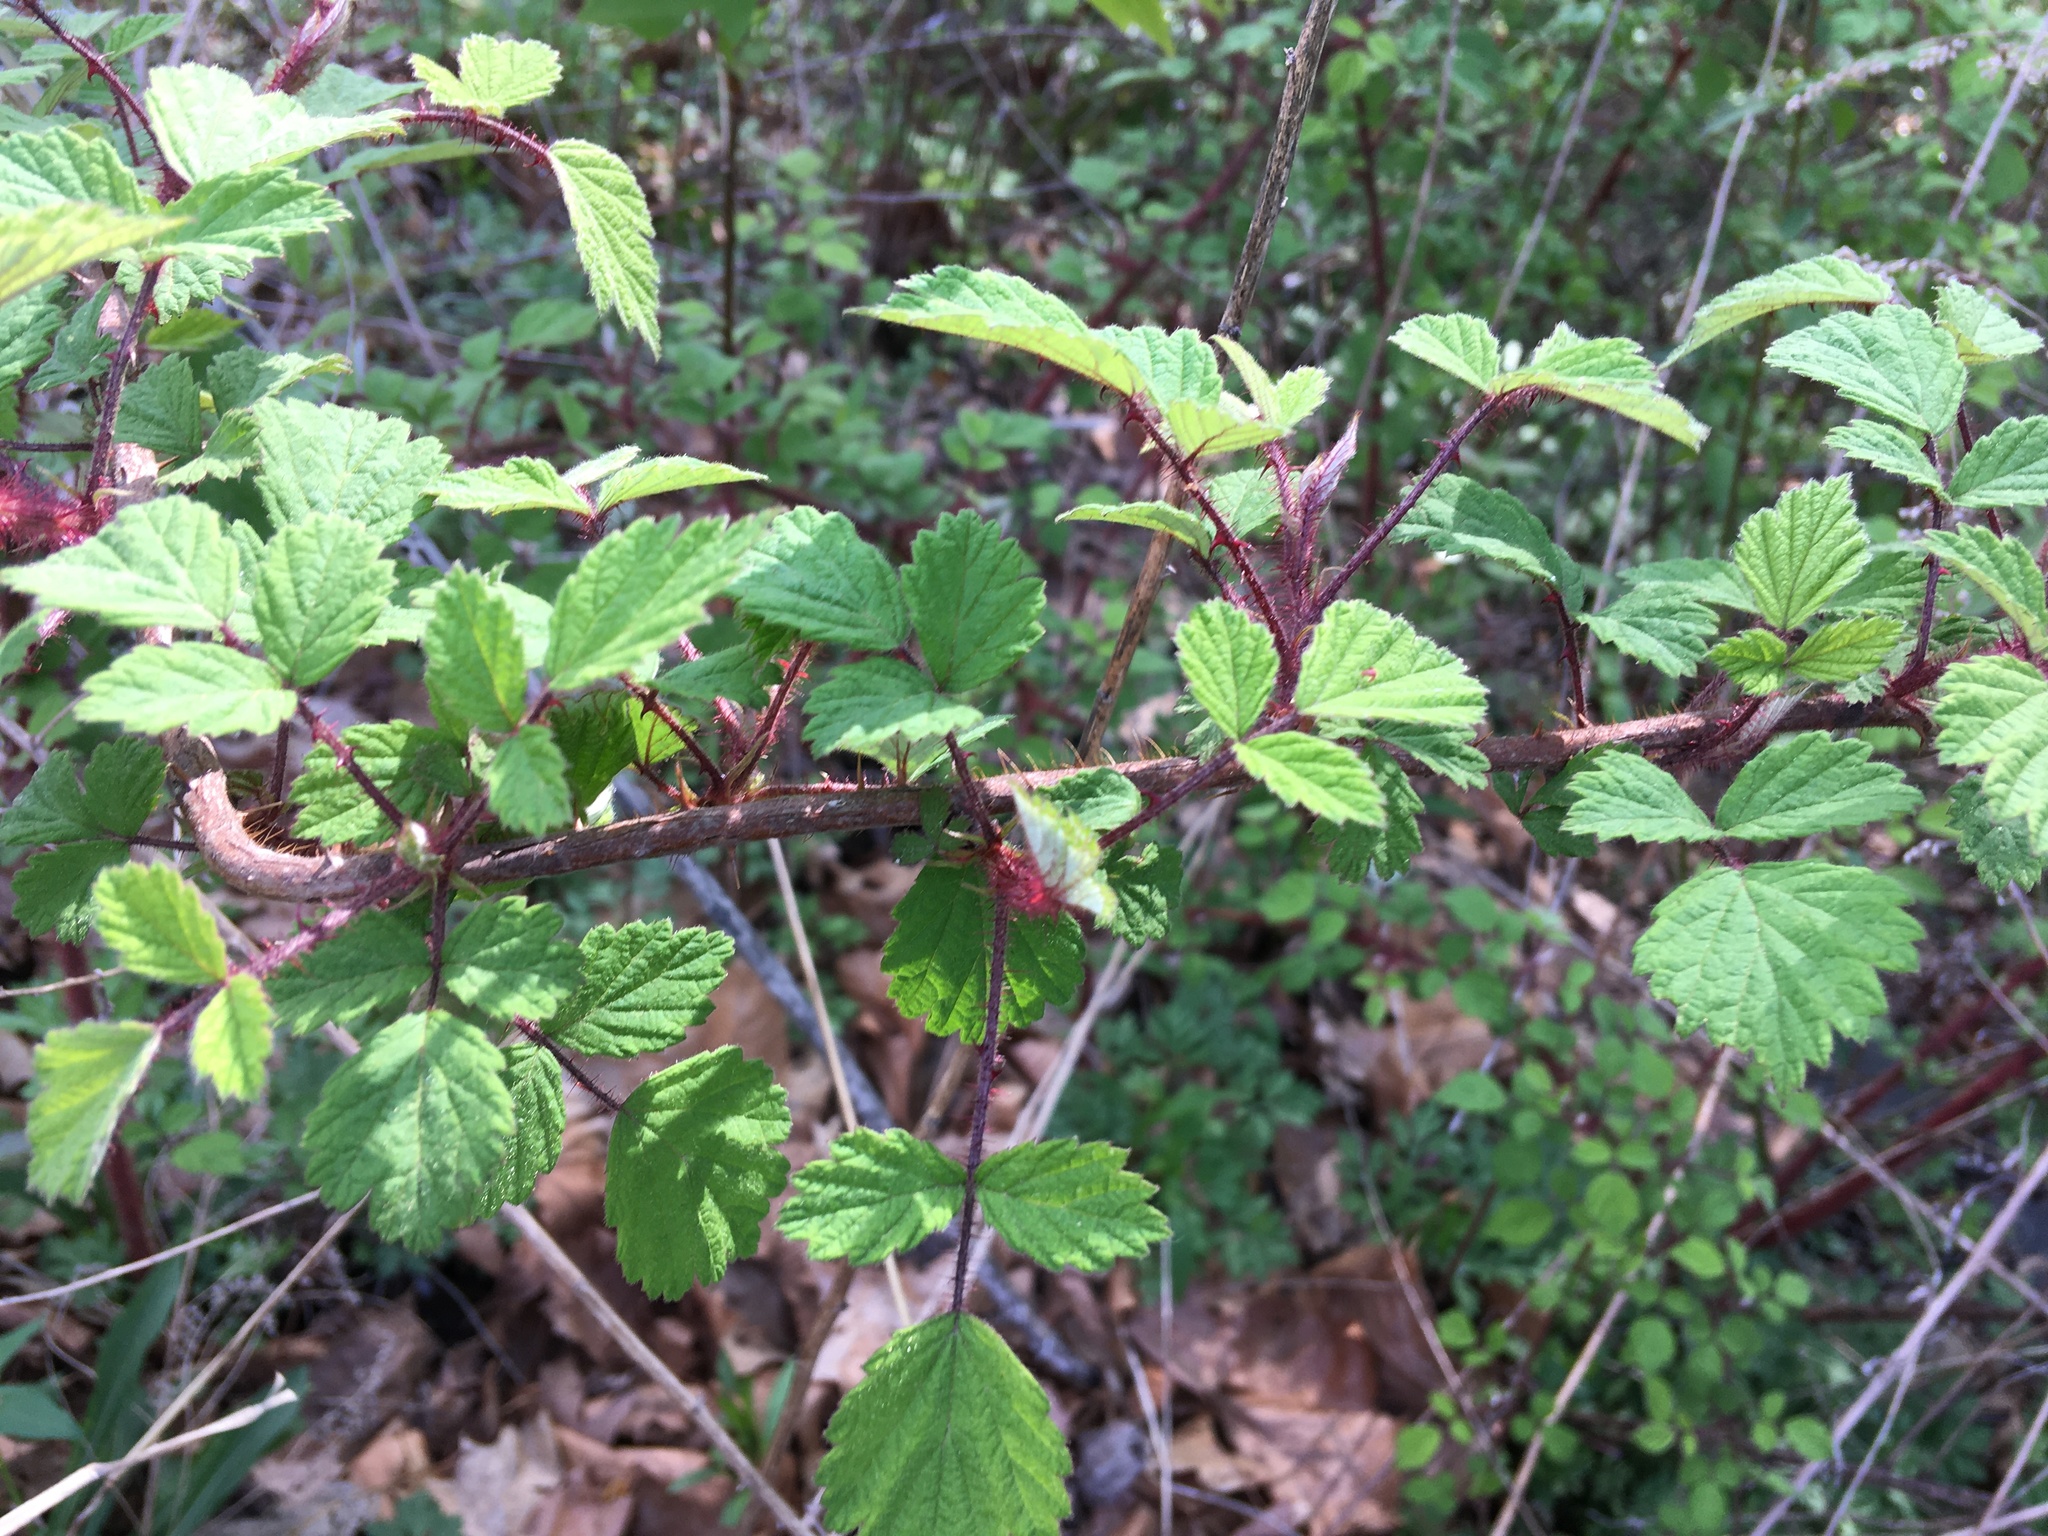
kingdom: Plantae
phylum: Tracheophyta
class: Magnoliopsida
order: Rosales
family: Rosaceae
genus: Rubus
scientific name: Rubus phoenicolasius
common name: Japanese wineberry
